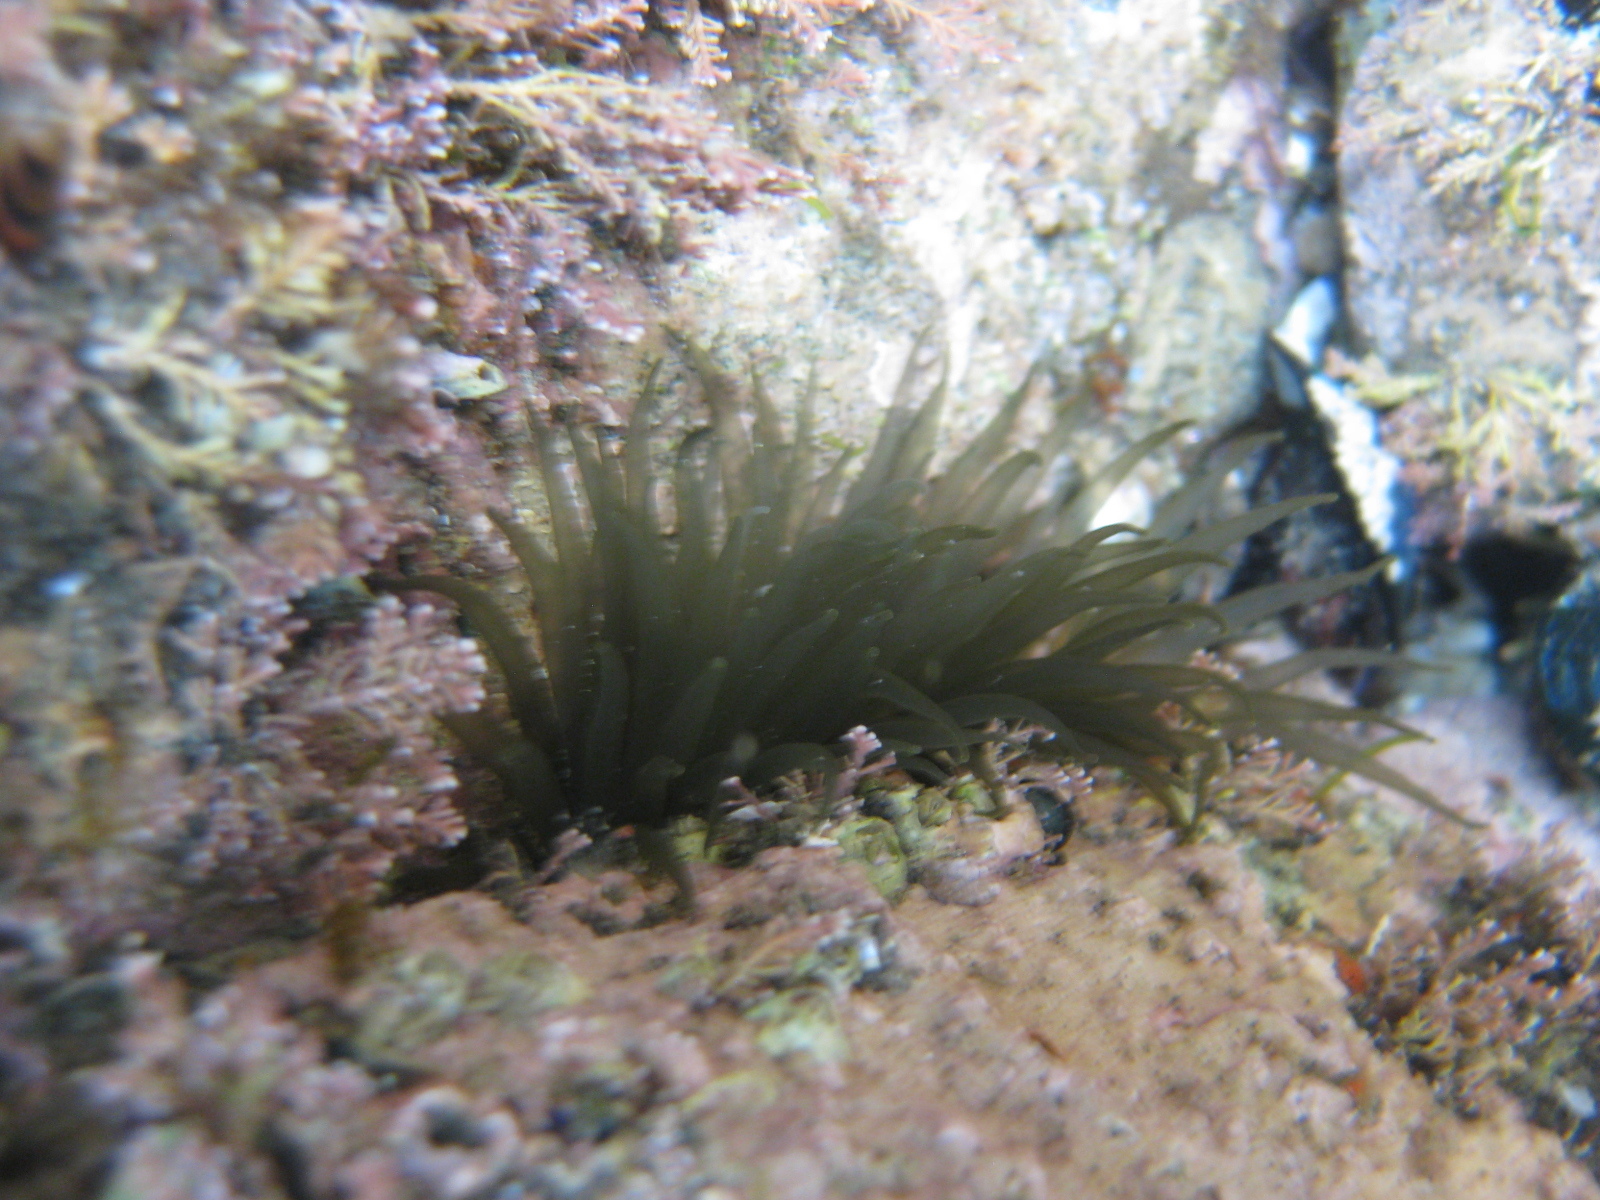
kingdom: Animalia
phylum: Cnidaria
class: Anthozoa
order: Actiniaria
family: Actiniidae
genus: Isactinia
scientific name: Isactinia olivacea
